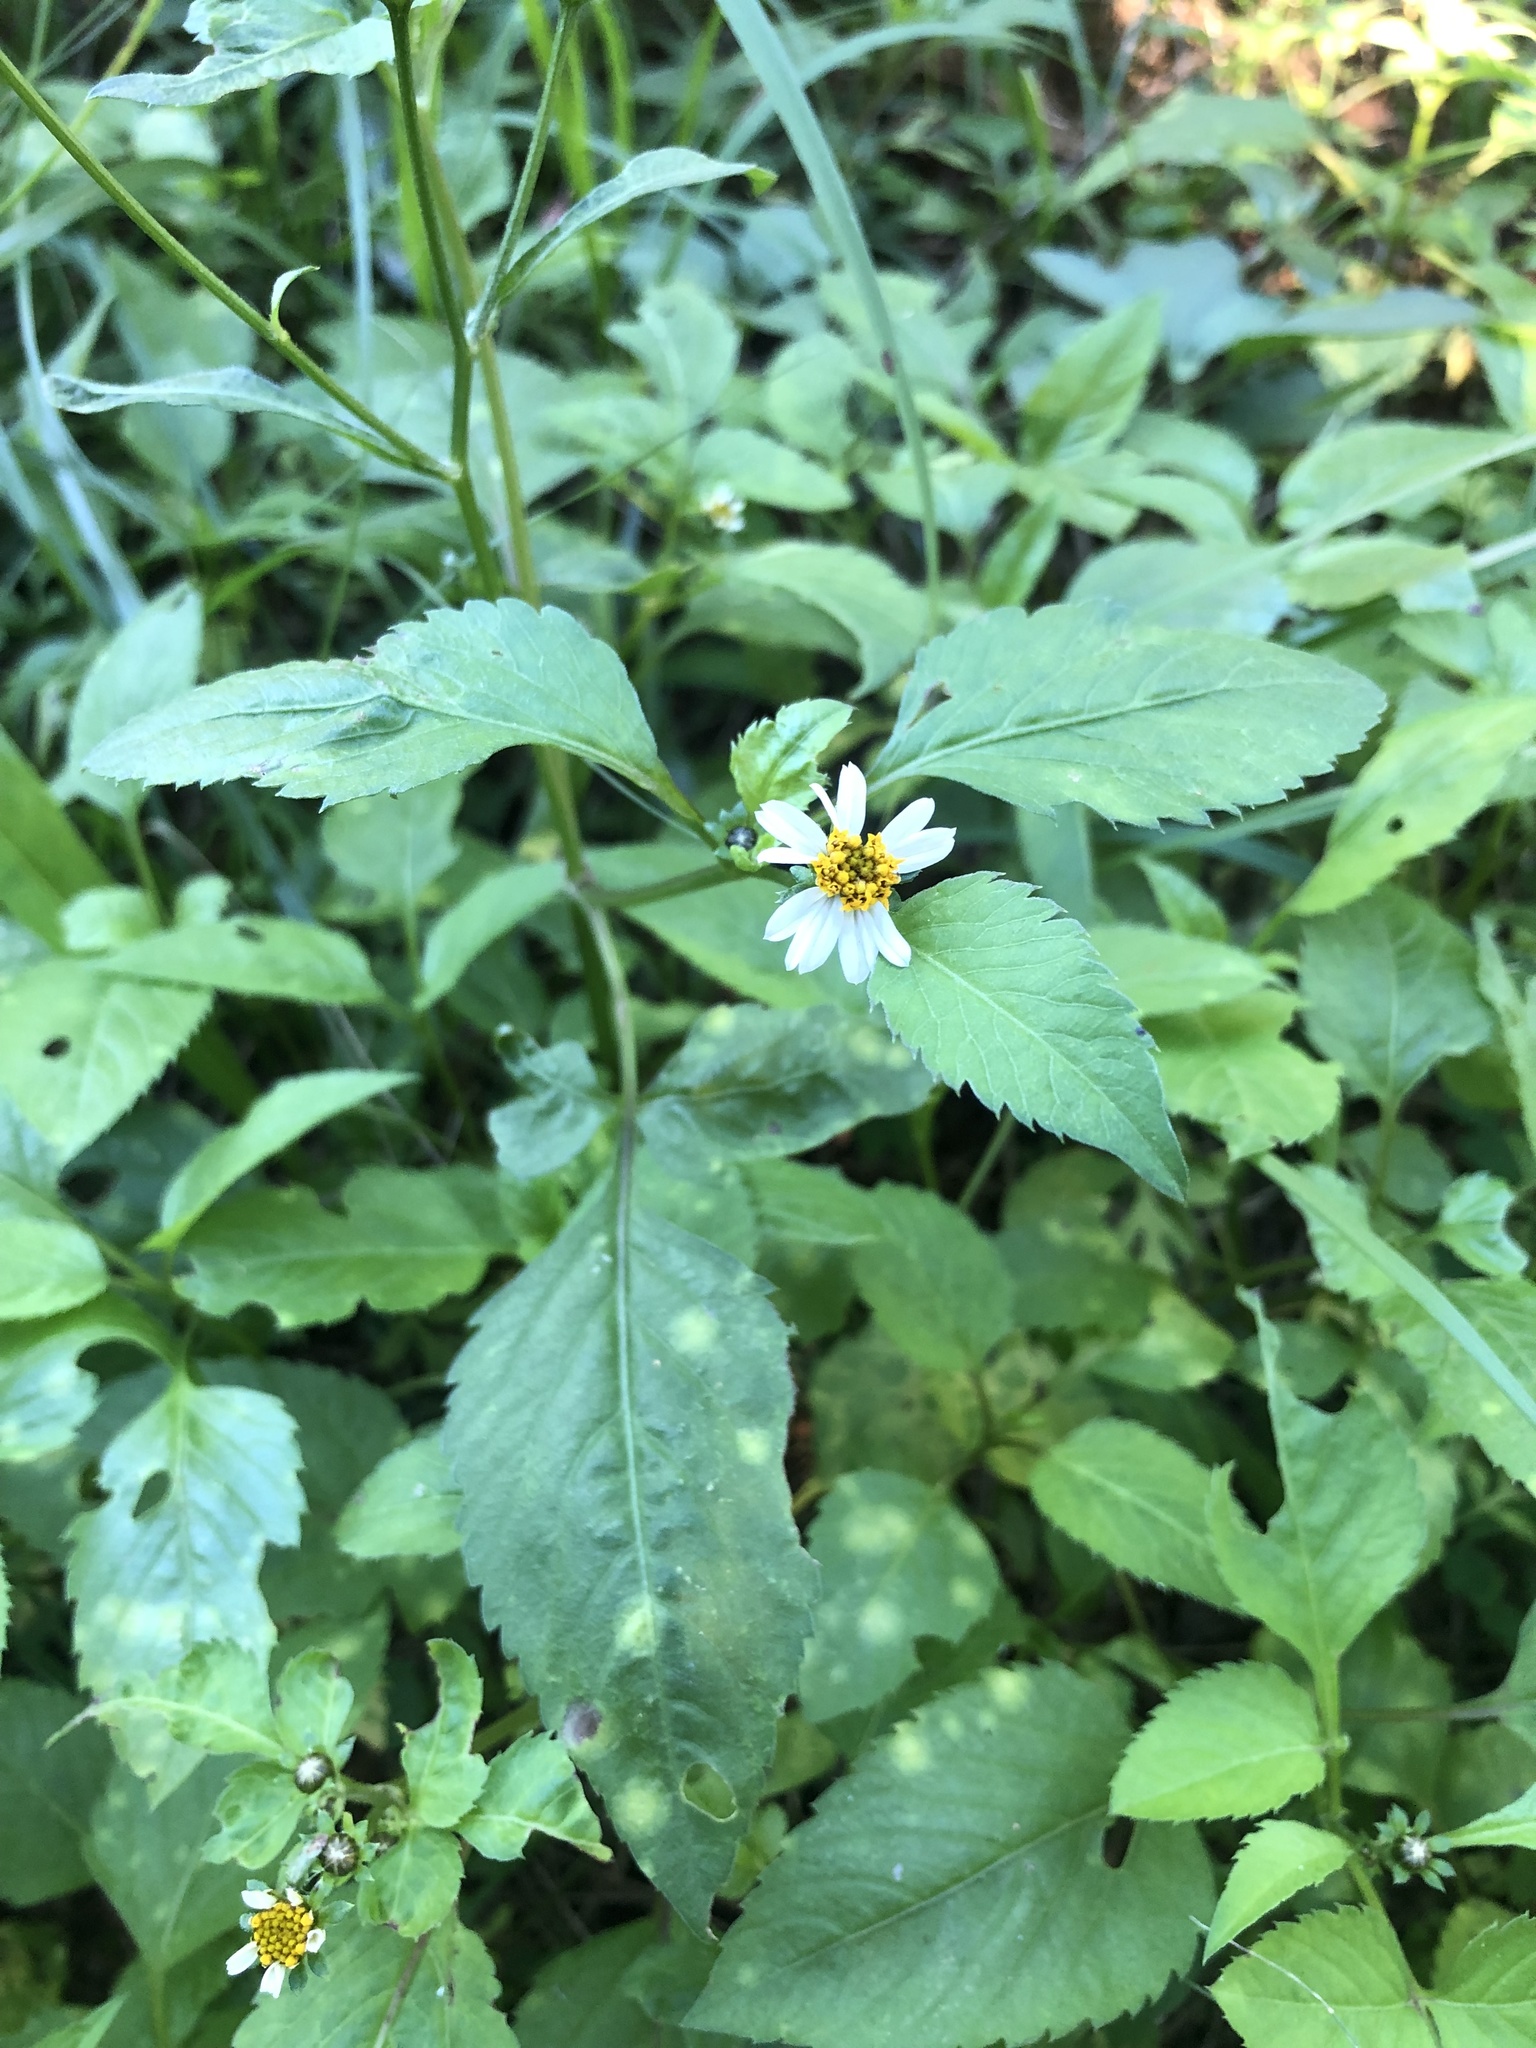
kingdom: Plantae
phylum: Tracheophyta
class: Magnoliopsida
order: Asterales
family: Asteraceae
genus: Bidens
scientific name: Bidens pilosa
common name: Black-jack
